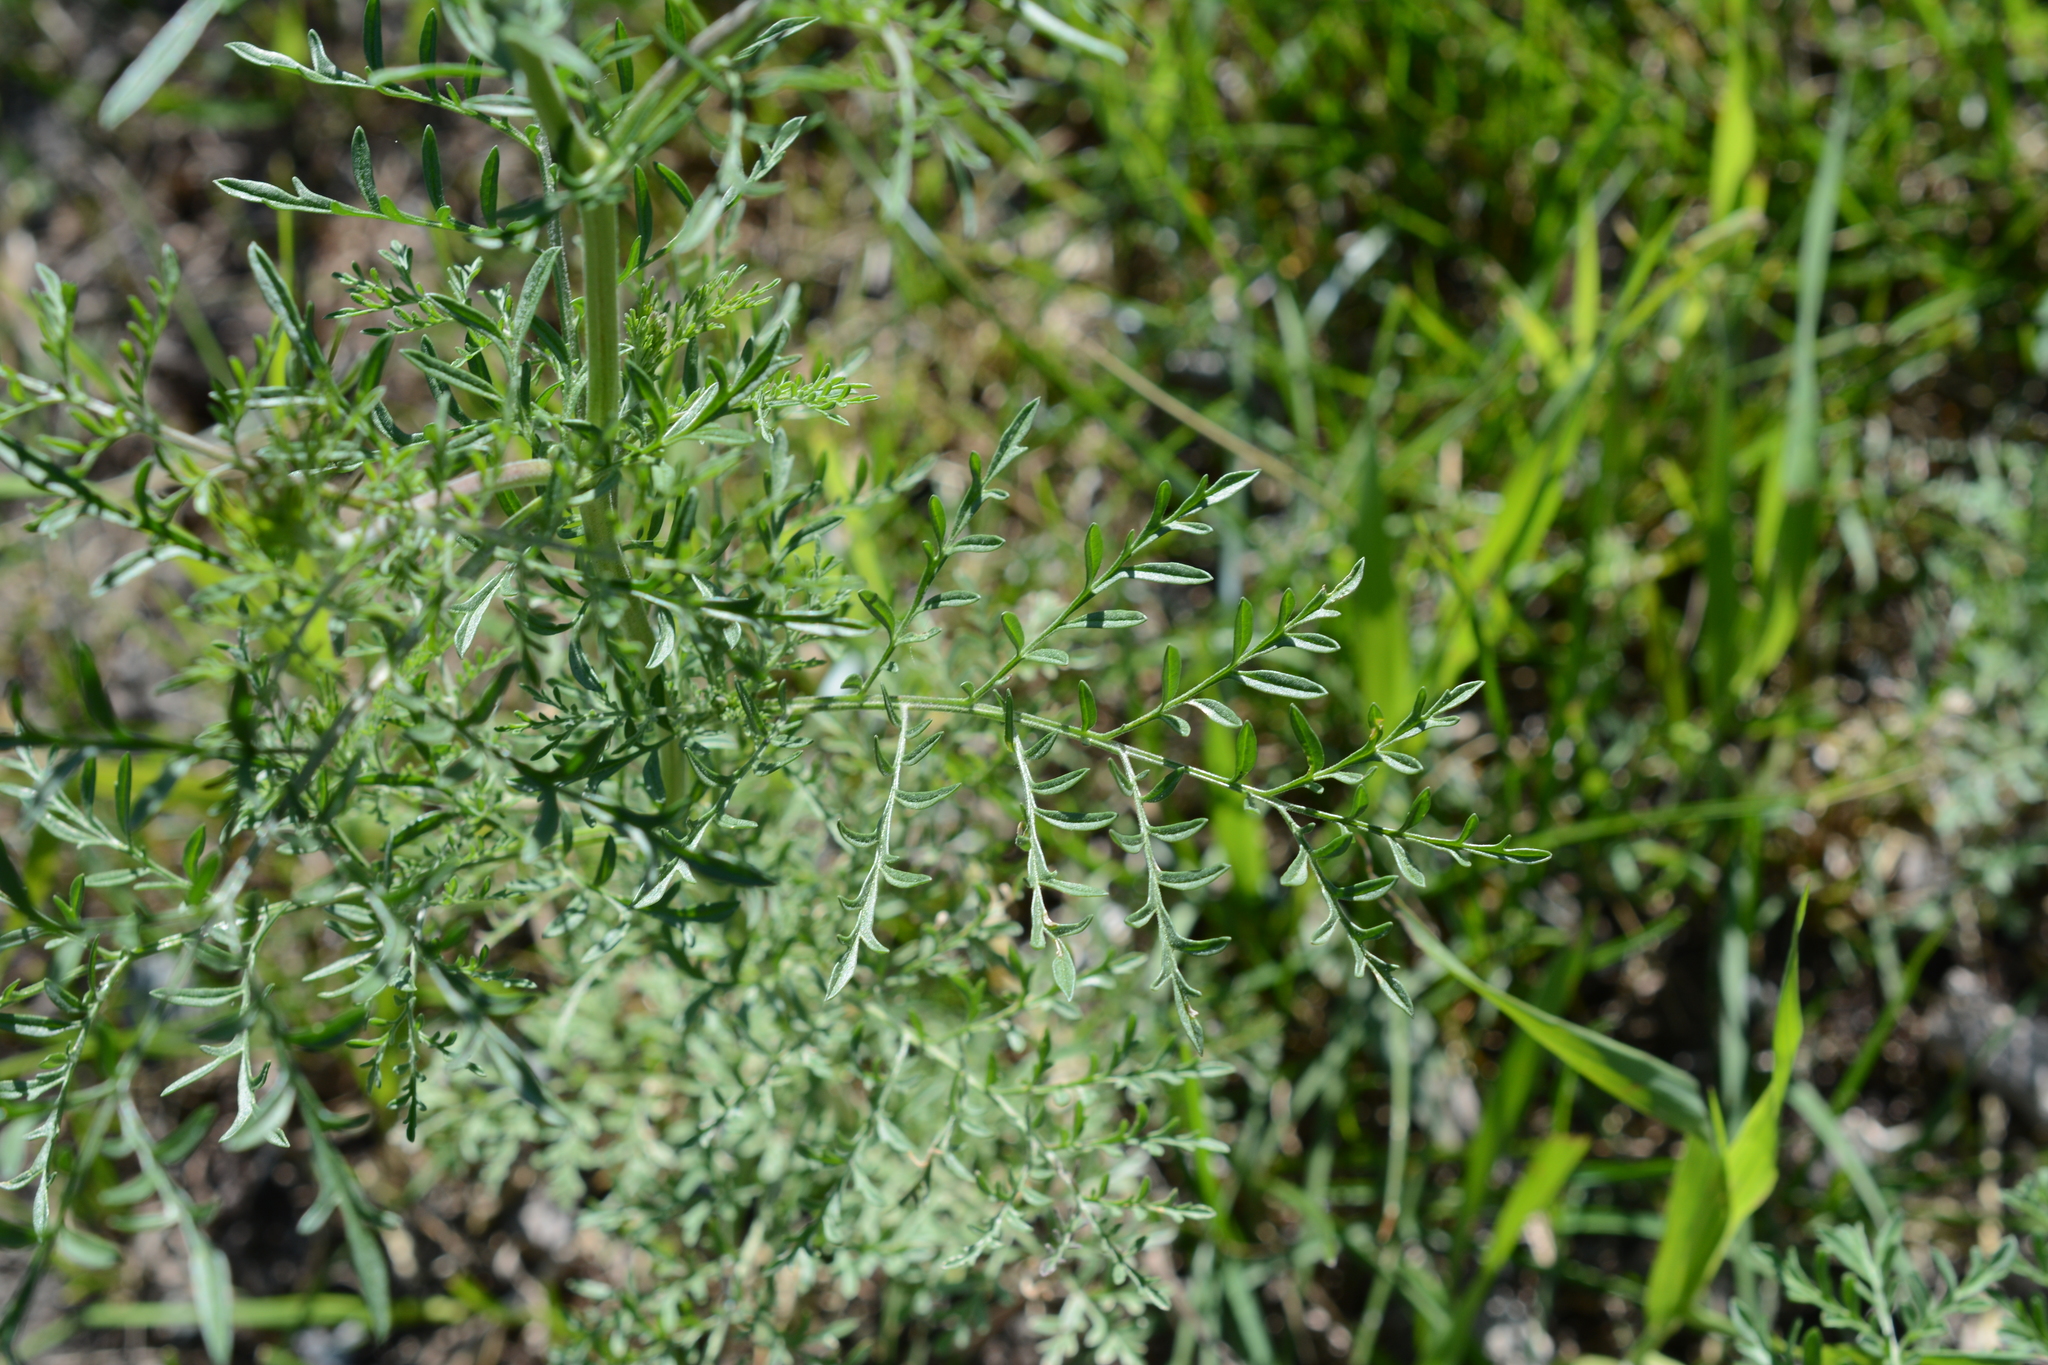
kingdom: Plantae
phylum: Tracheophyta
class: Magnoliopsida
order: Brassicales
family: Brassicaceae
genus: Descurainia
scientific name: Descurainia sophia
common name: Flixweed
